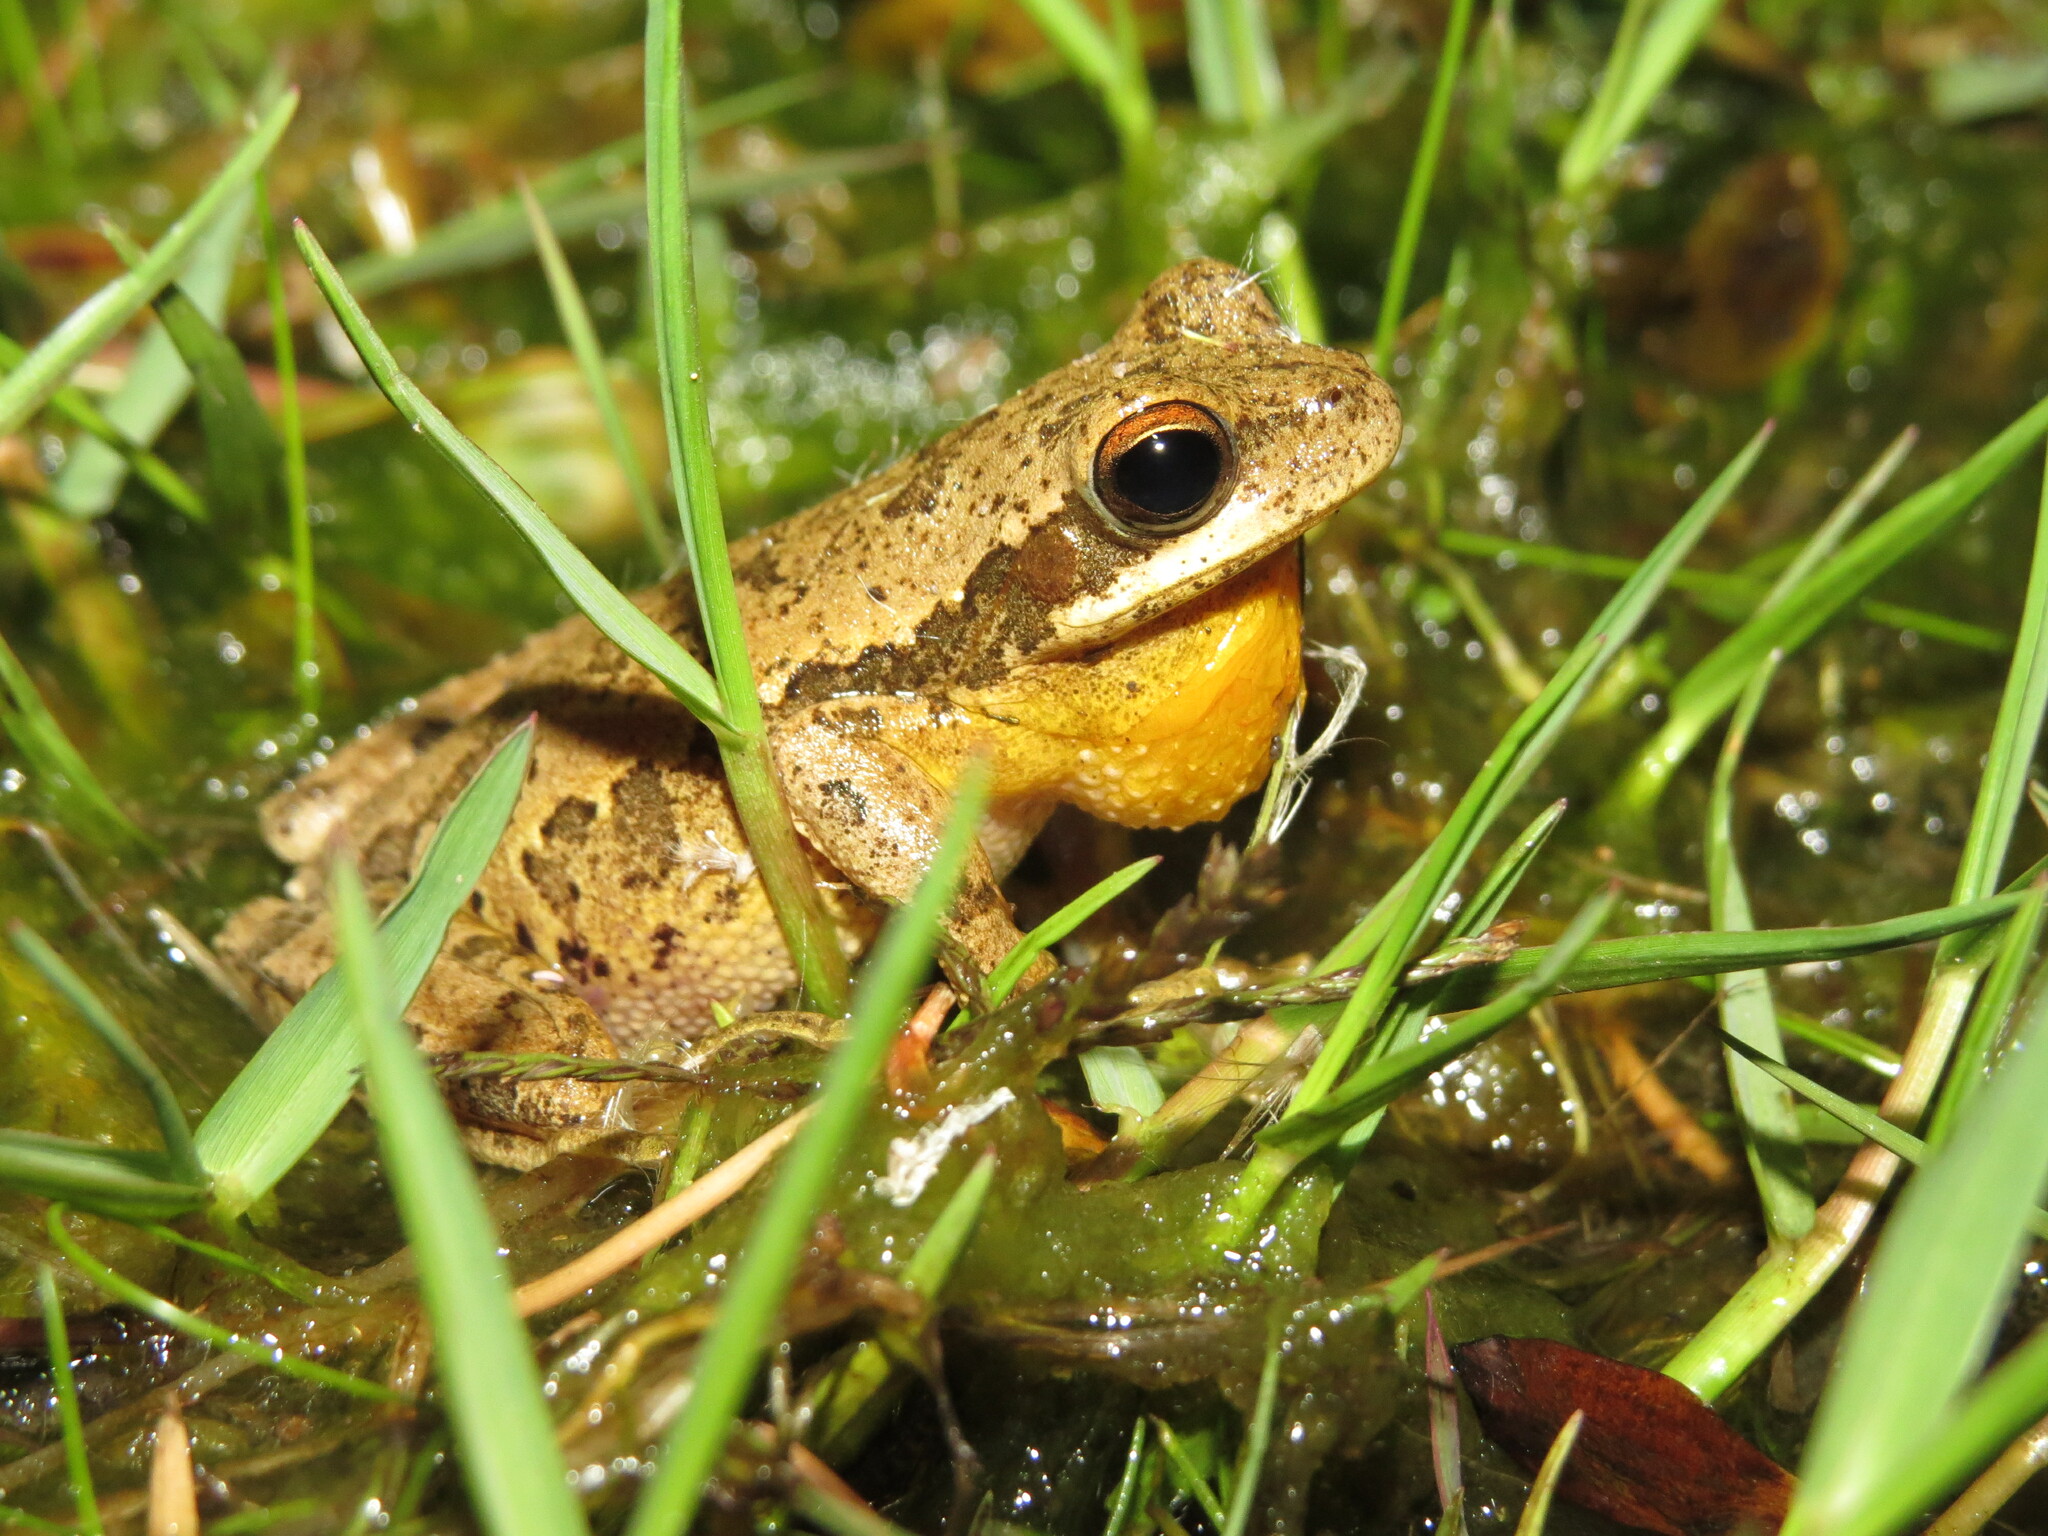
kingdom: Animalia
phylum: Chordata
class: Amphibia
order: Anura
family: Hylidae
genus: Boana
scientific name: Boana pulchella
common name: Montevideo treefrog
